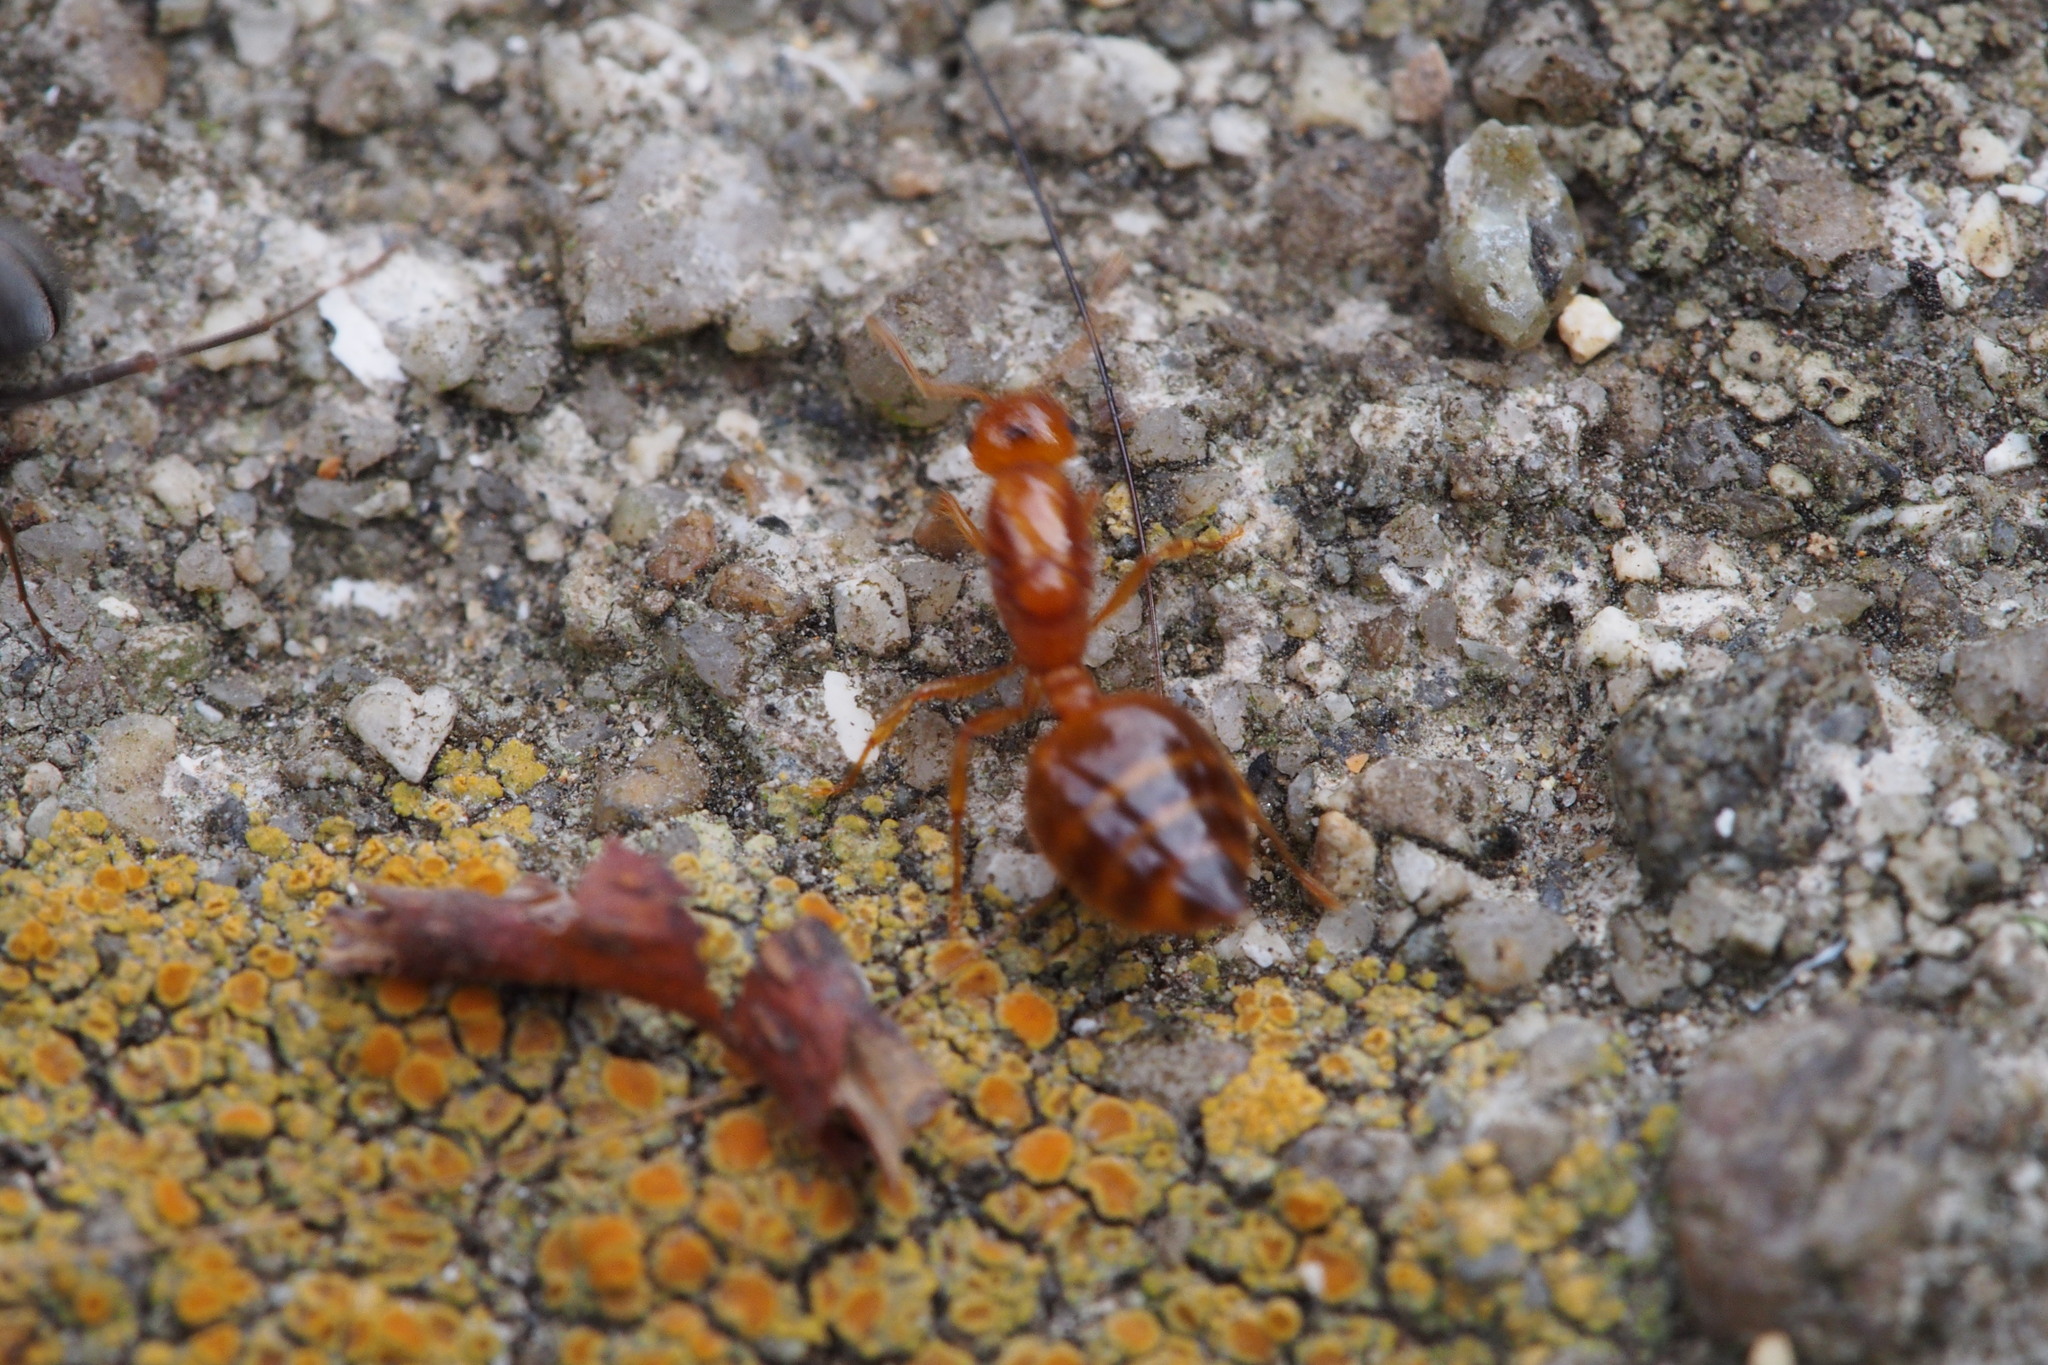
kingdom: Animalia
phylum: Arthropoda
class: Insecta
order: Hymenoptera
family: Formicidae
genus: Crematogaster
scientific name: Crematogaster osakensis
